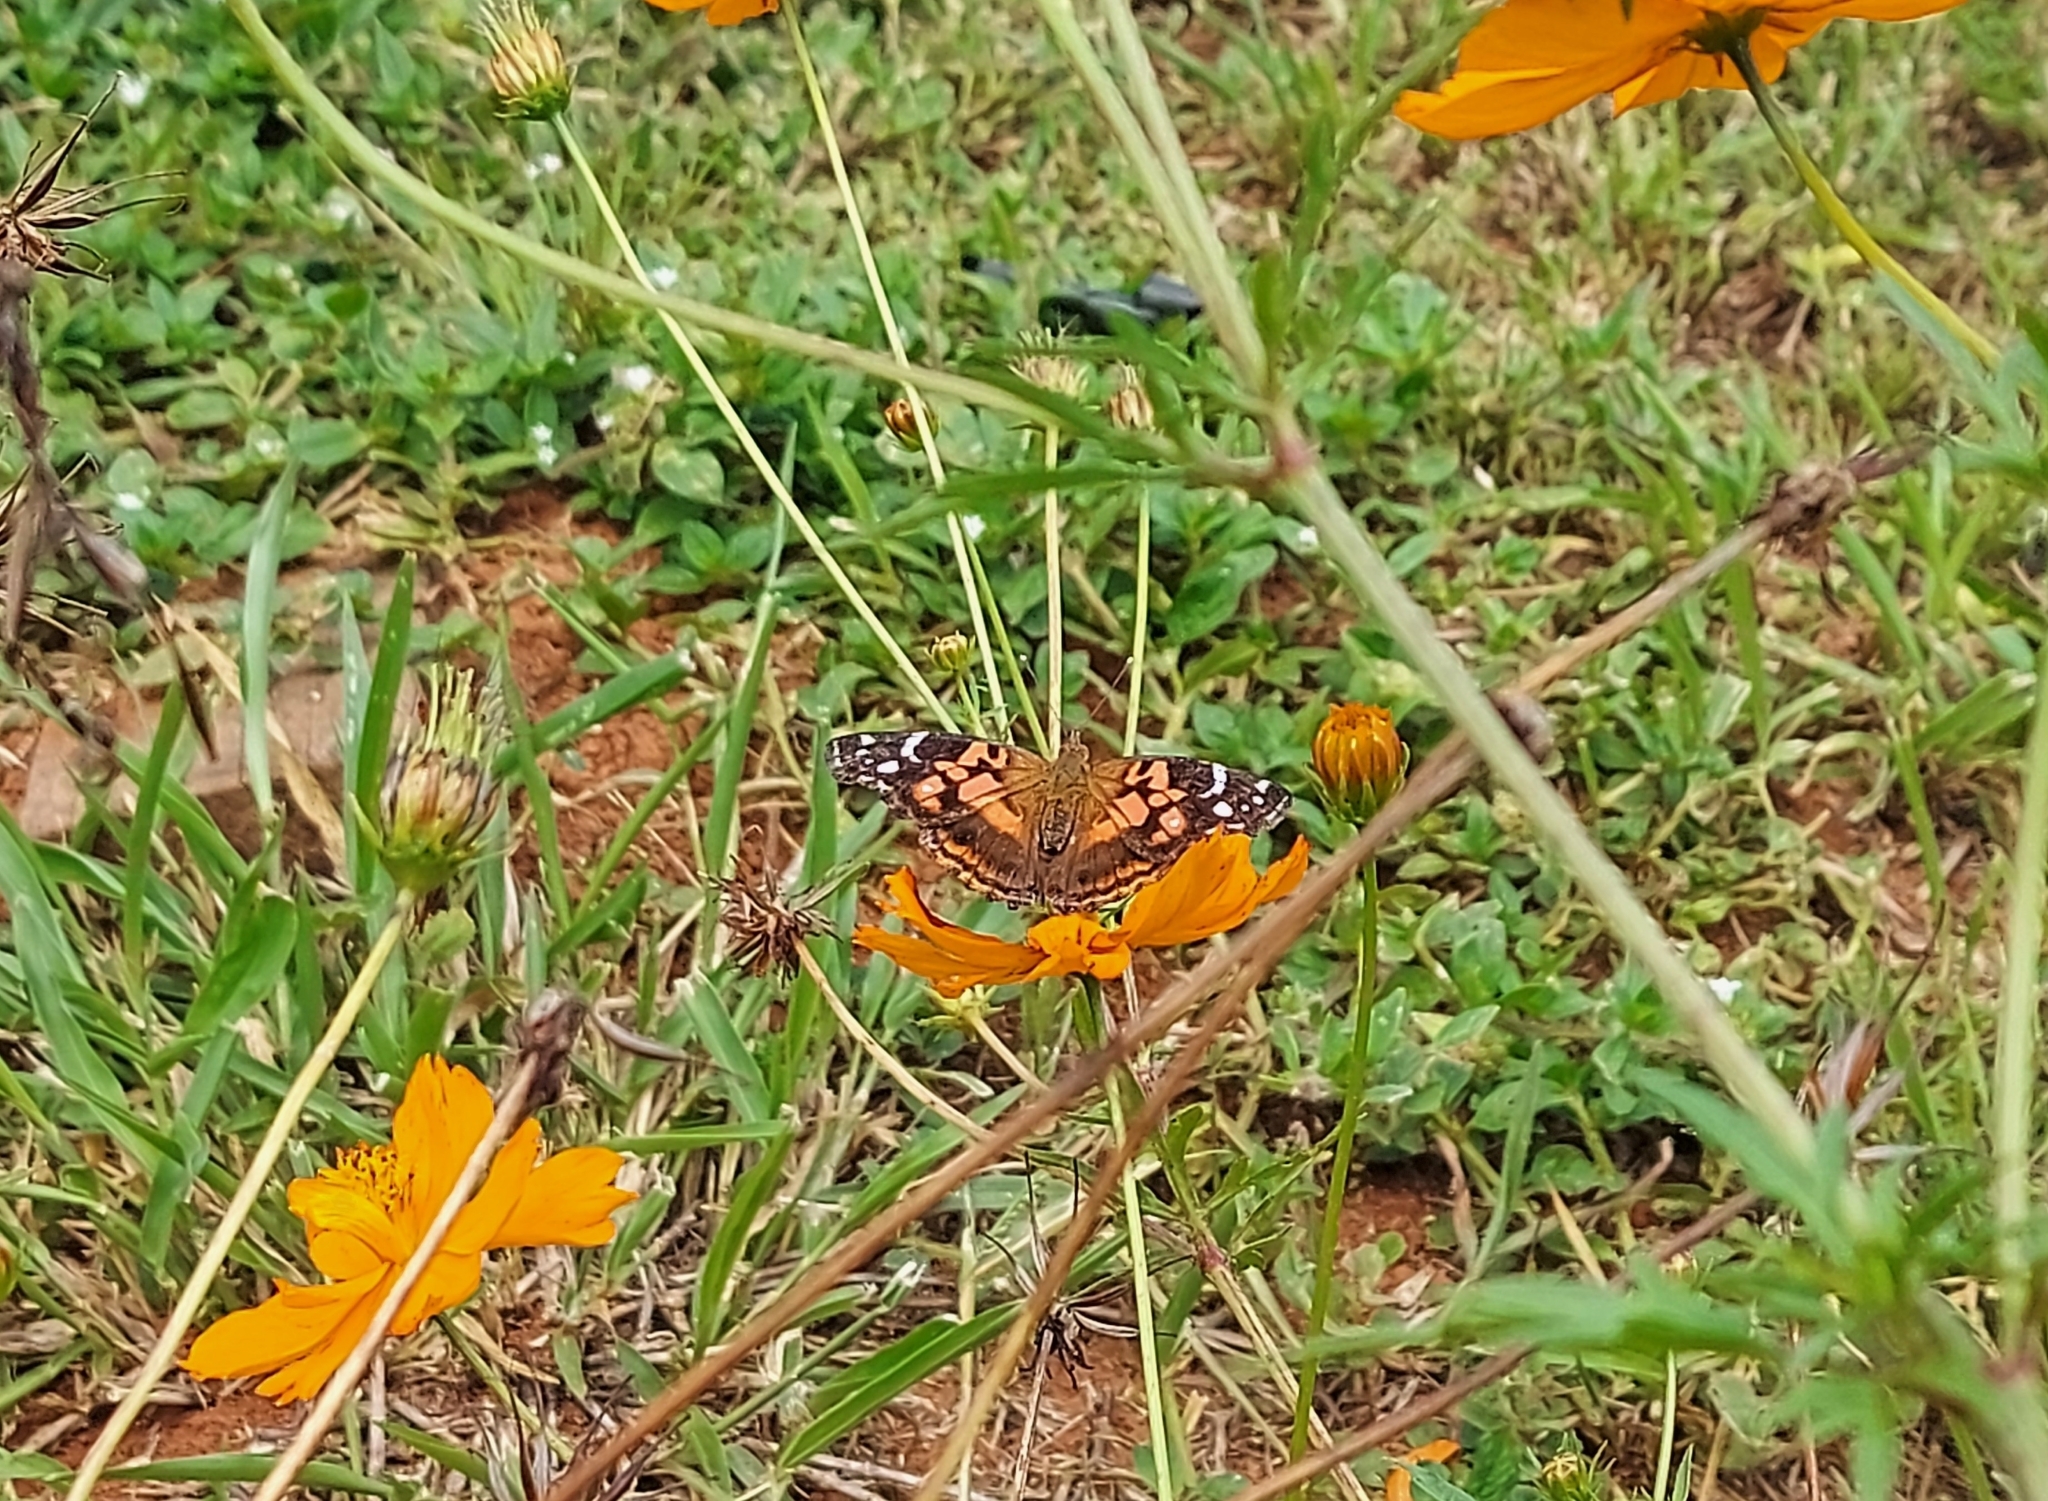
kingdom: Animalia
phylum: Arthropoda
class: Insecta
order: Lepidoptera
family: Nymphalidae
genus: Vanessa
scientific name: Vanessa myrinna
